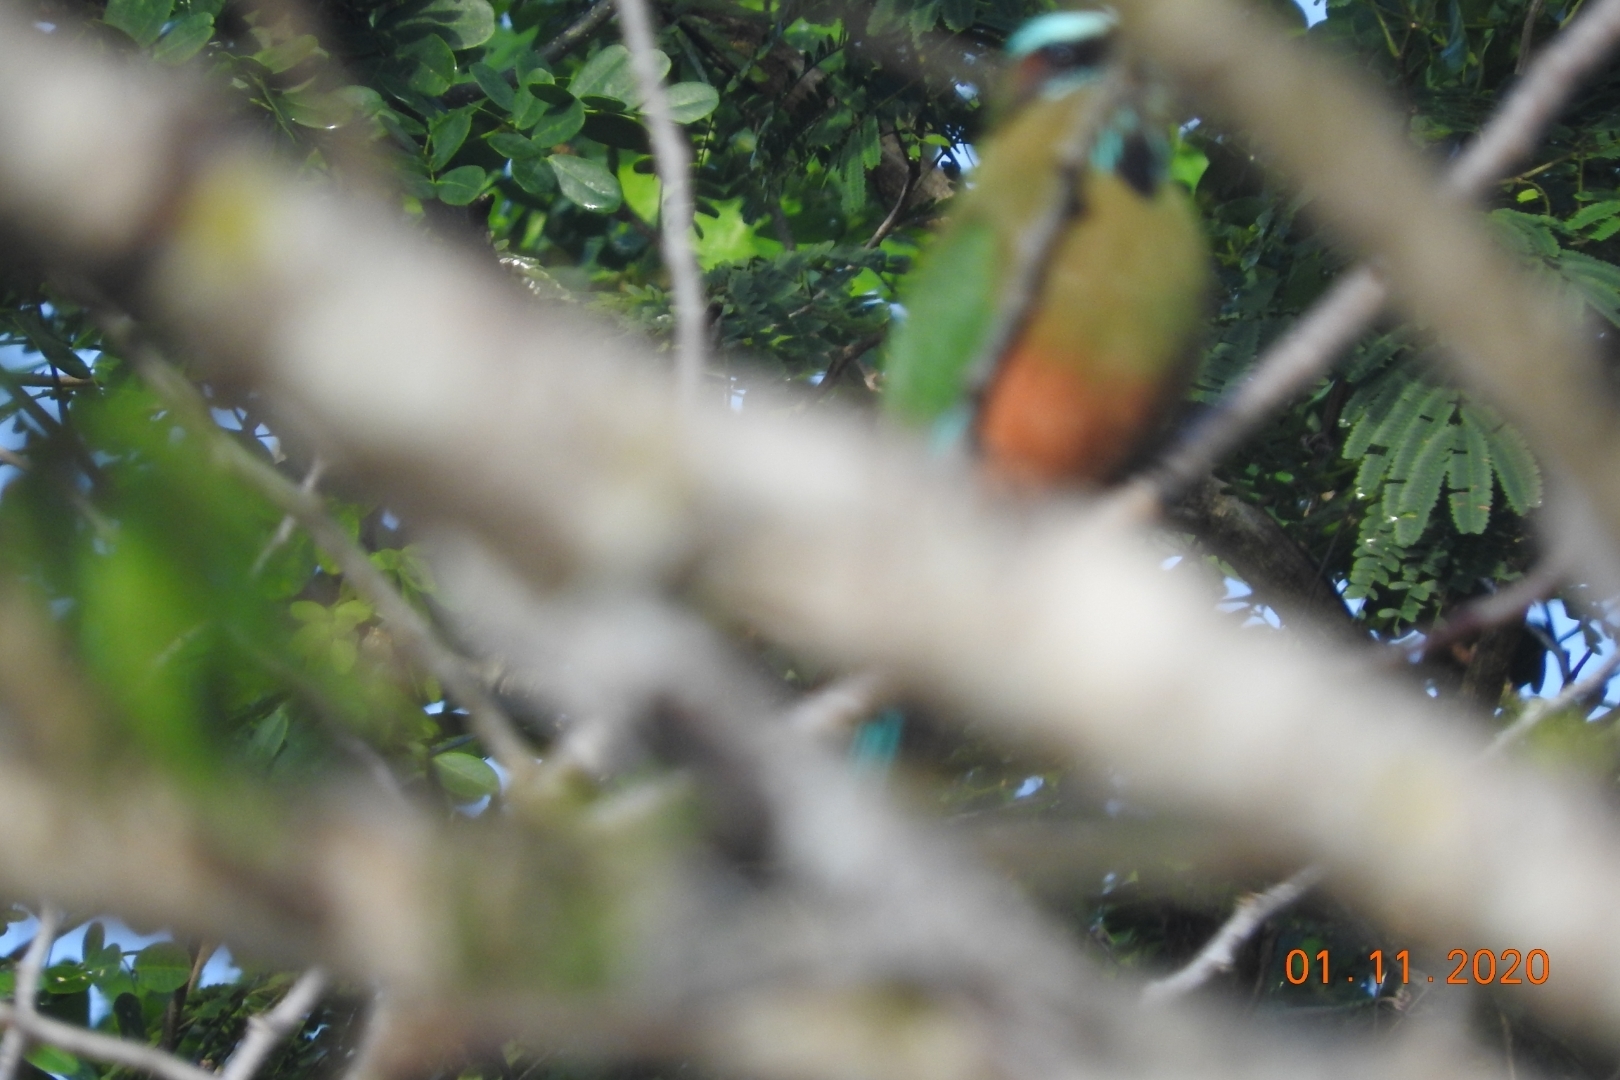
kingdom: Animalia
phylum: Chordata
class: Aves
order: Coraciiformes
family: Momotidae
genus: Eumomota
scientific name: Eumomota superciliosa
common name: Turquoise-browed motmot
